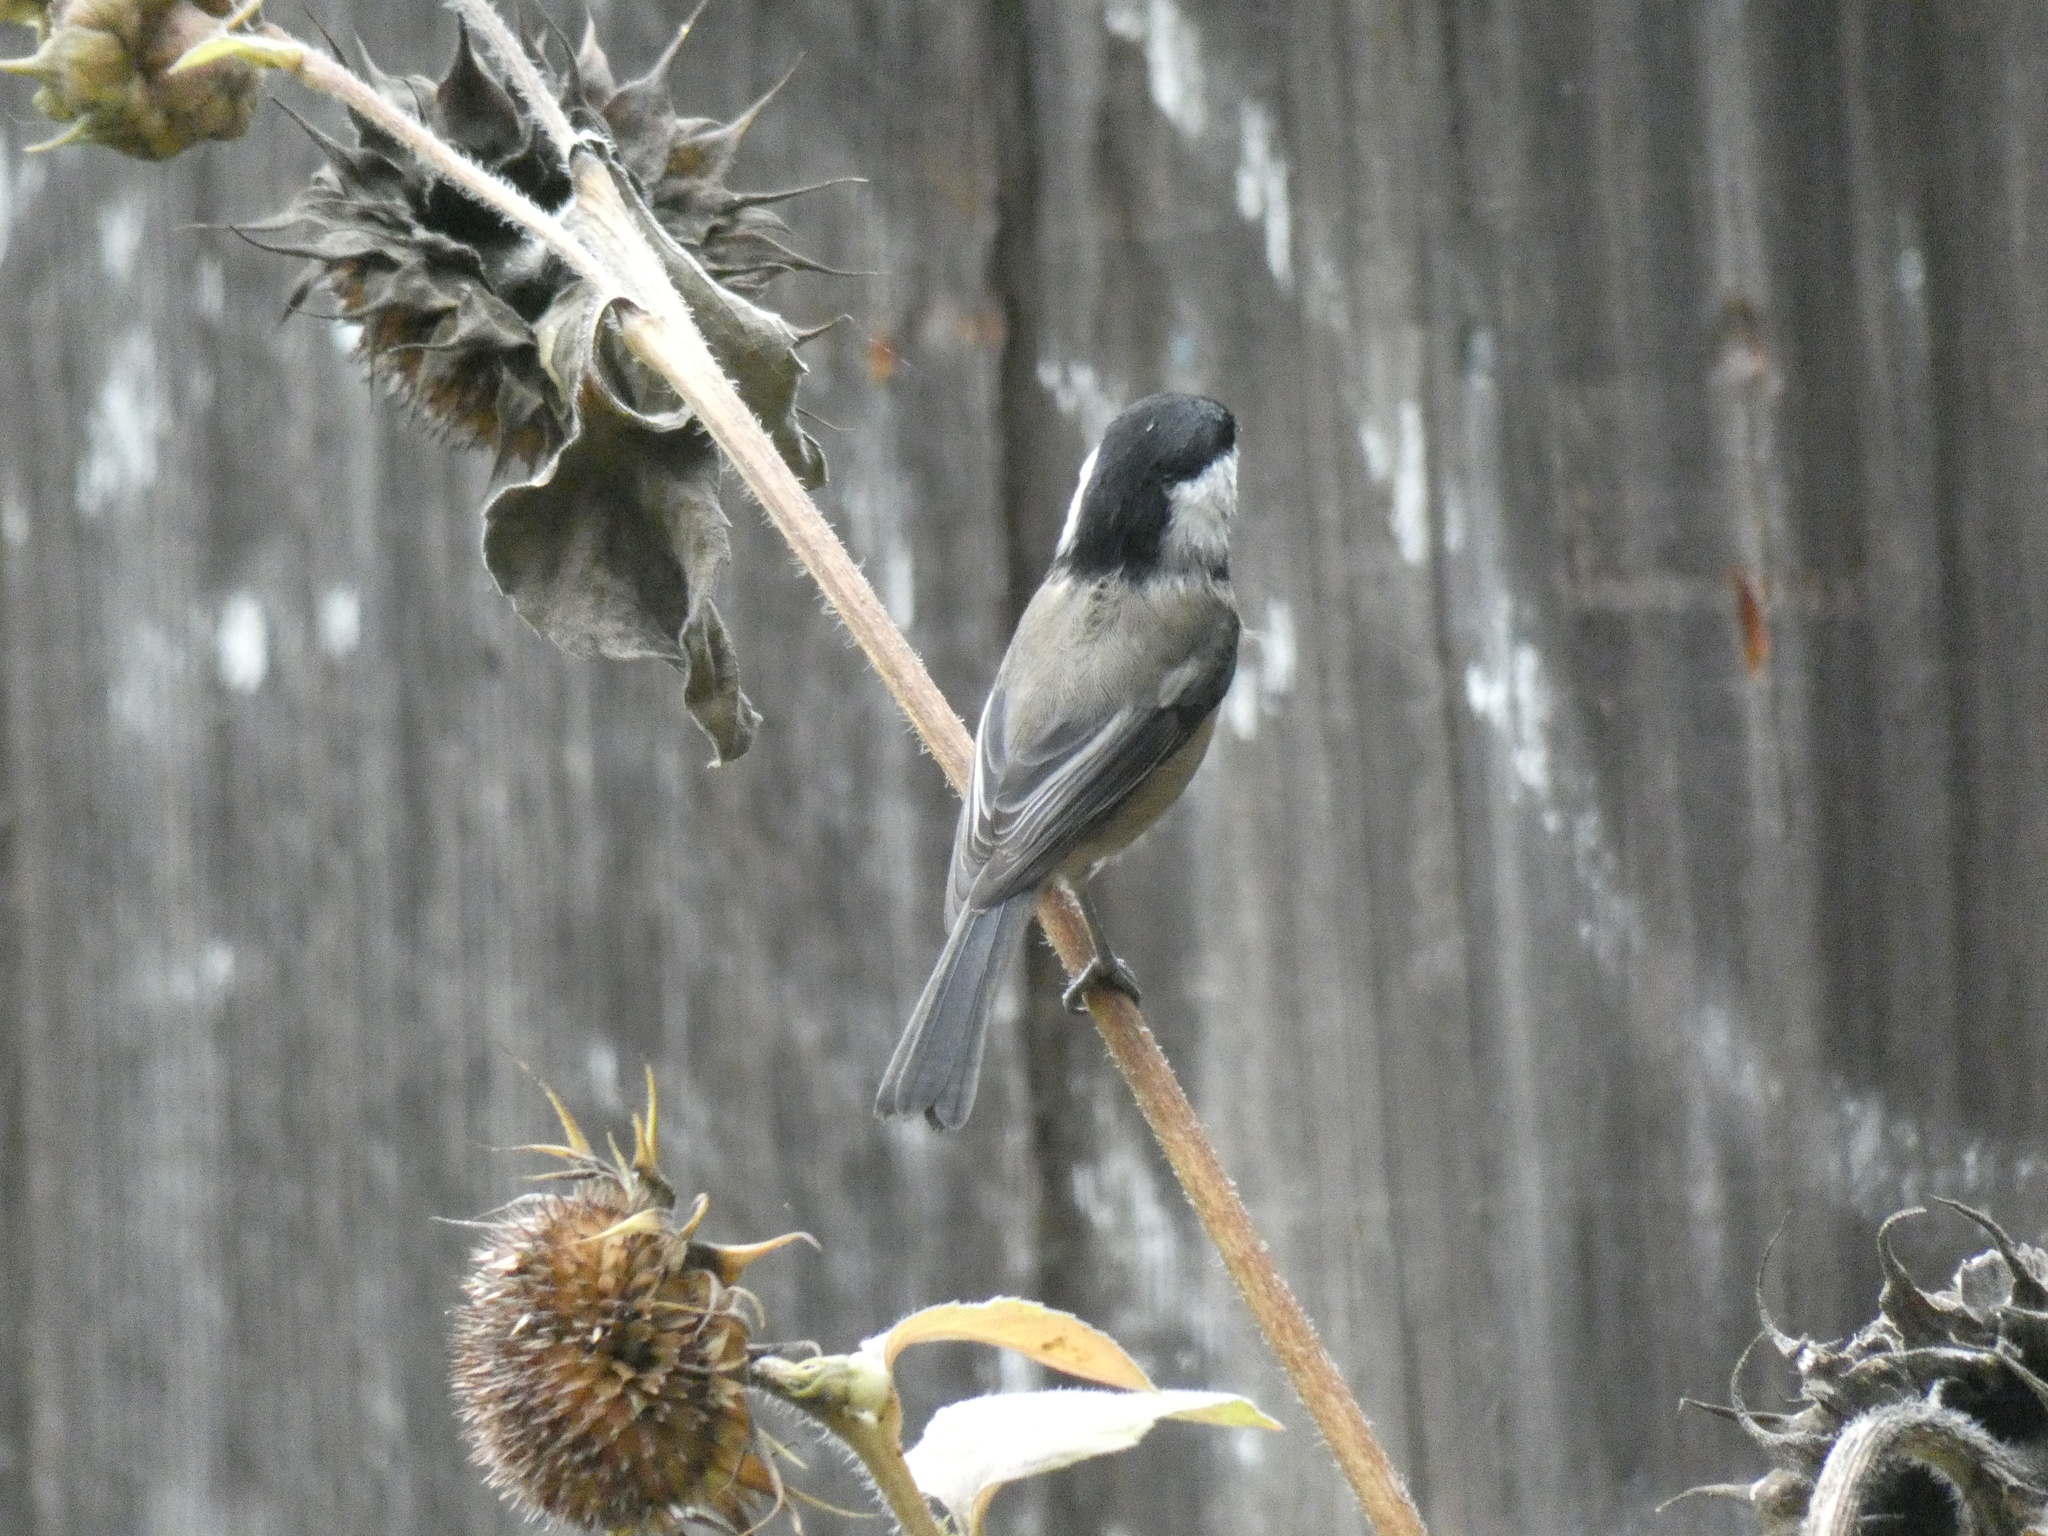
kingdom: Animalia
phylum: Chordata
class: Aves
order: Passeriformes
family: Paridae
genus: Poecile
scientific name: Poecile atricapillus
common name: Black-capped chickadee
